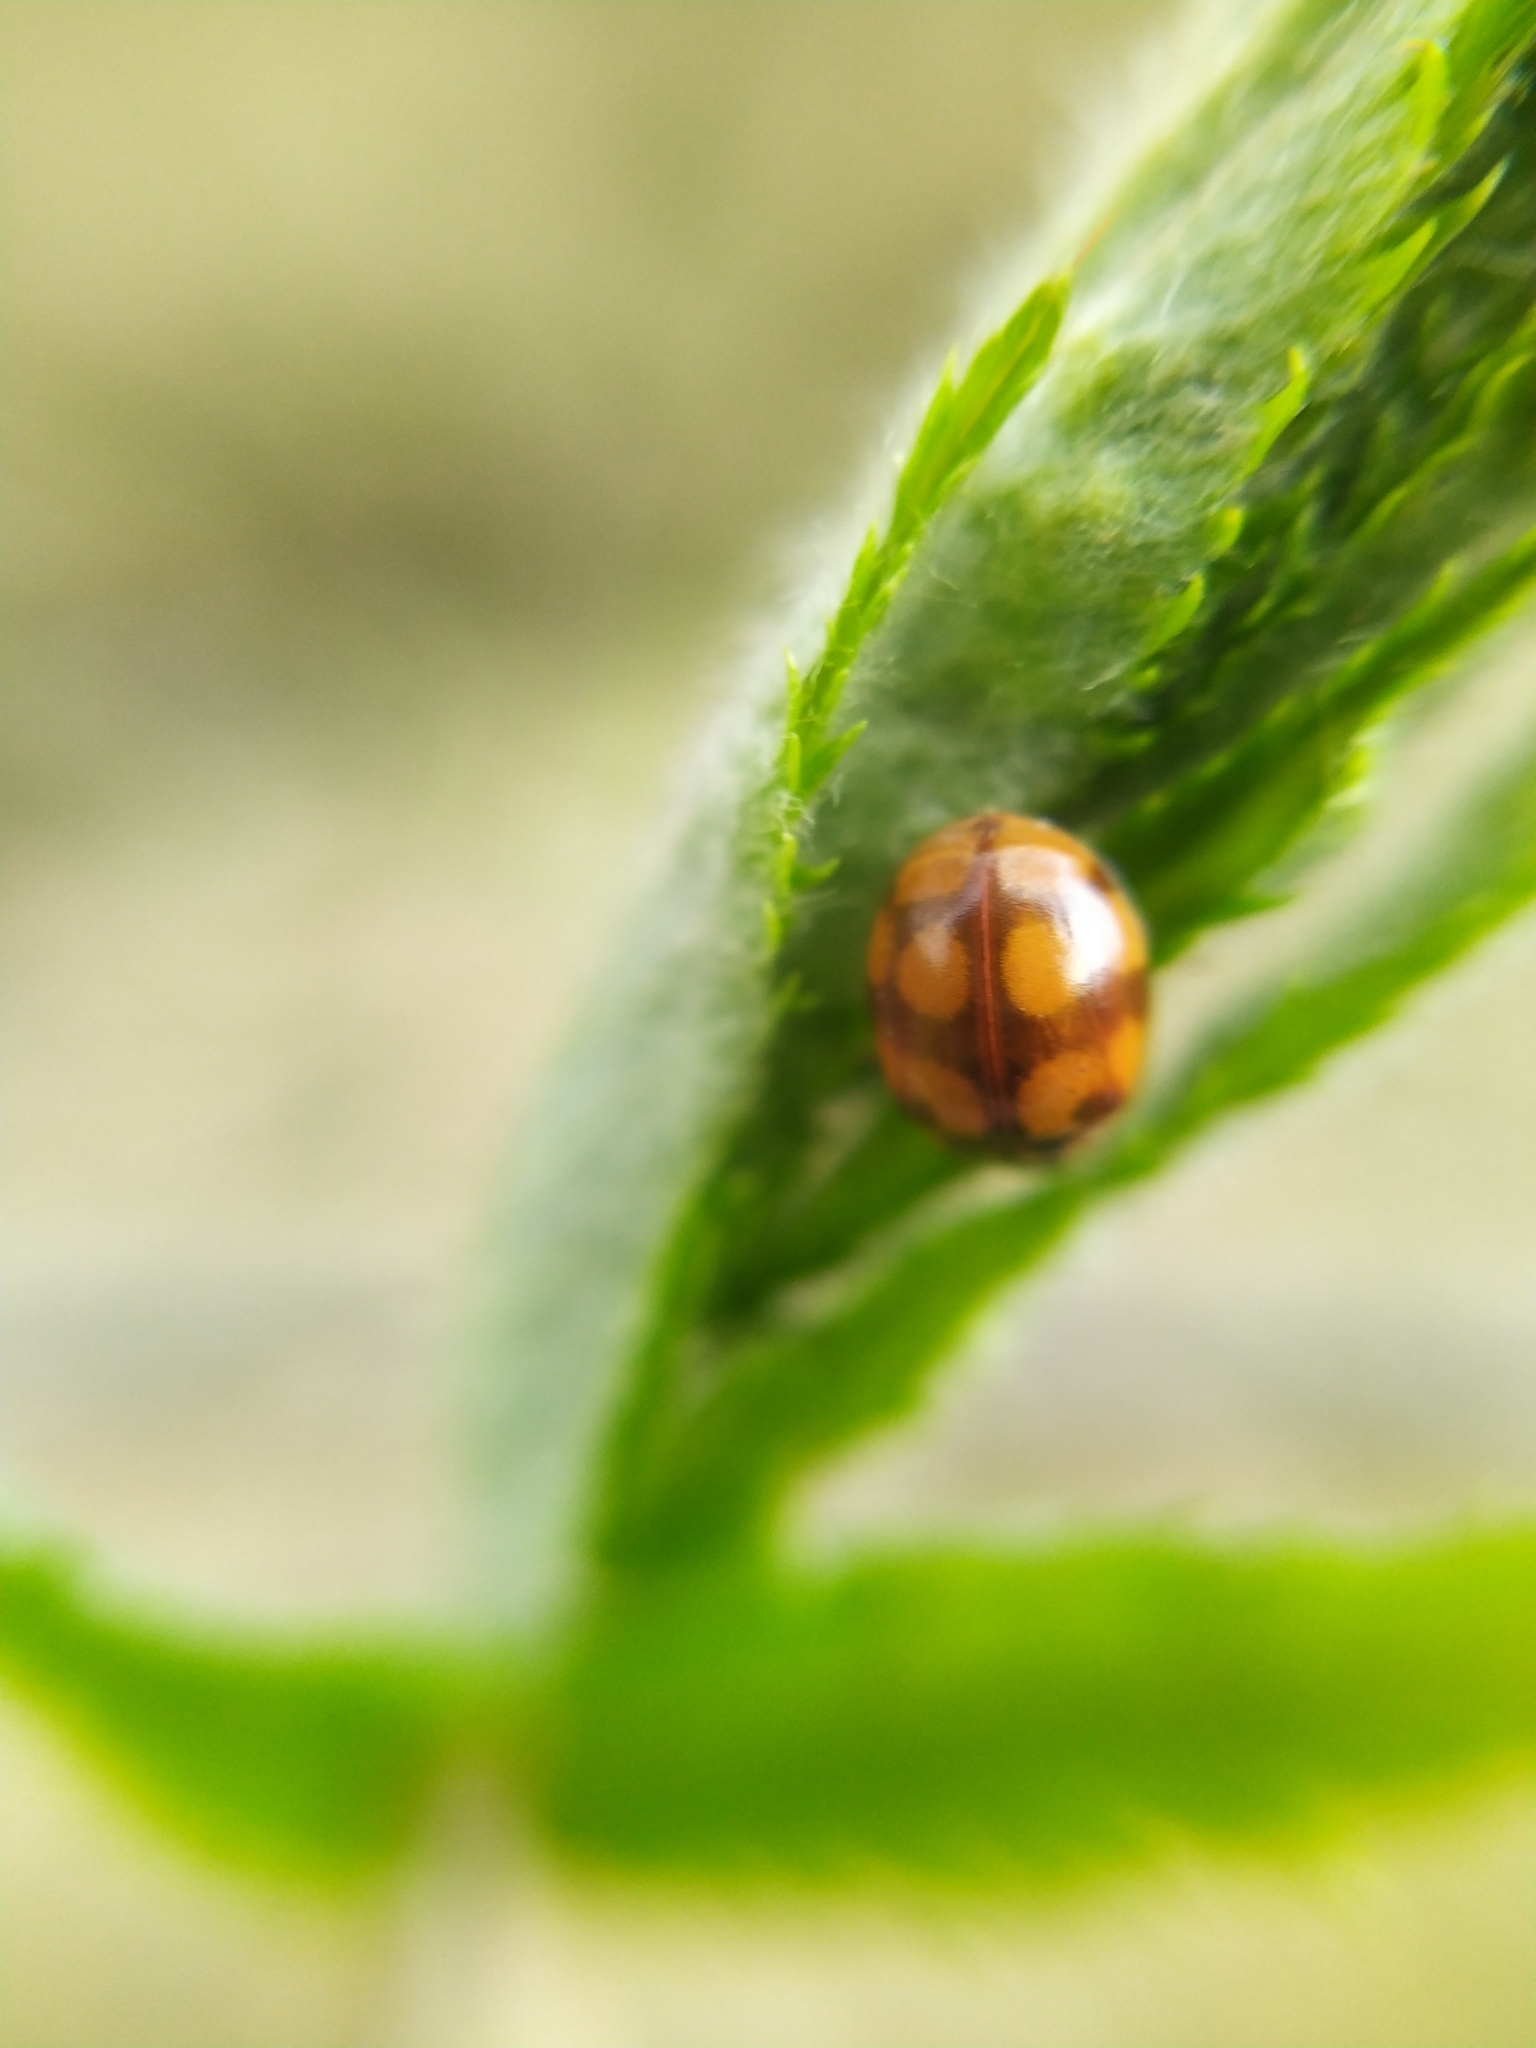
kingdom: Animalia
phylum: Arthropoda
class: Insecta
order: Coleoptera
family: Coccinellidae
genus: Adalia
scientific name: Adalia decempunctata
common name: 10-spot ladybird
